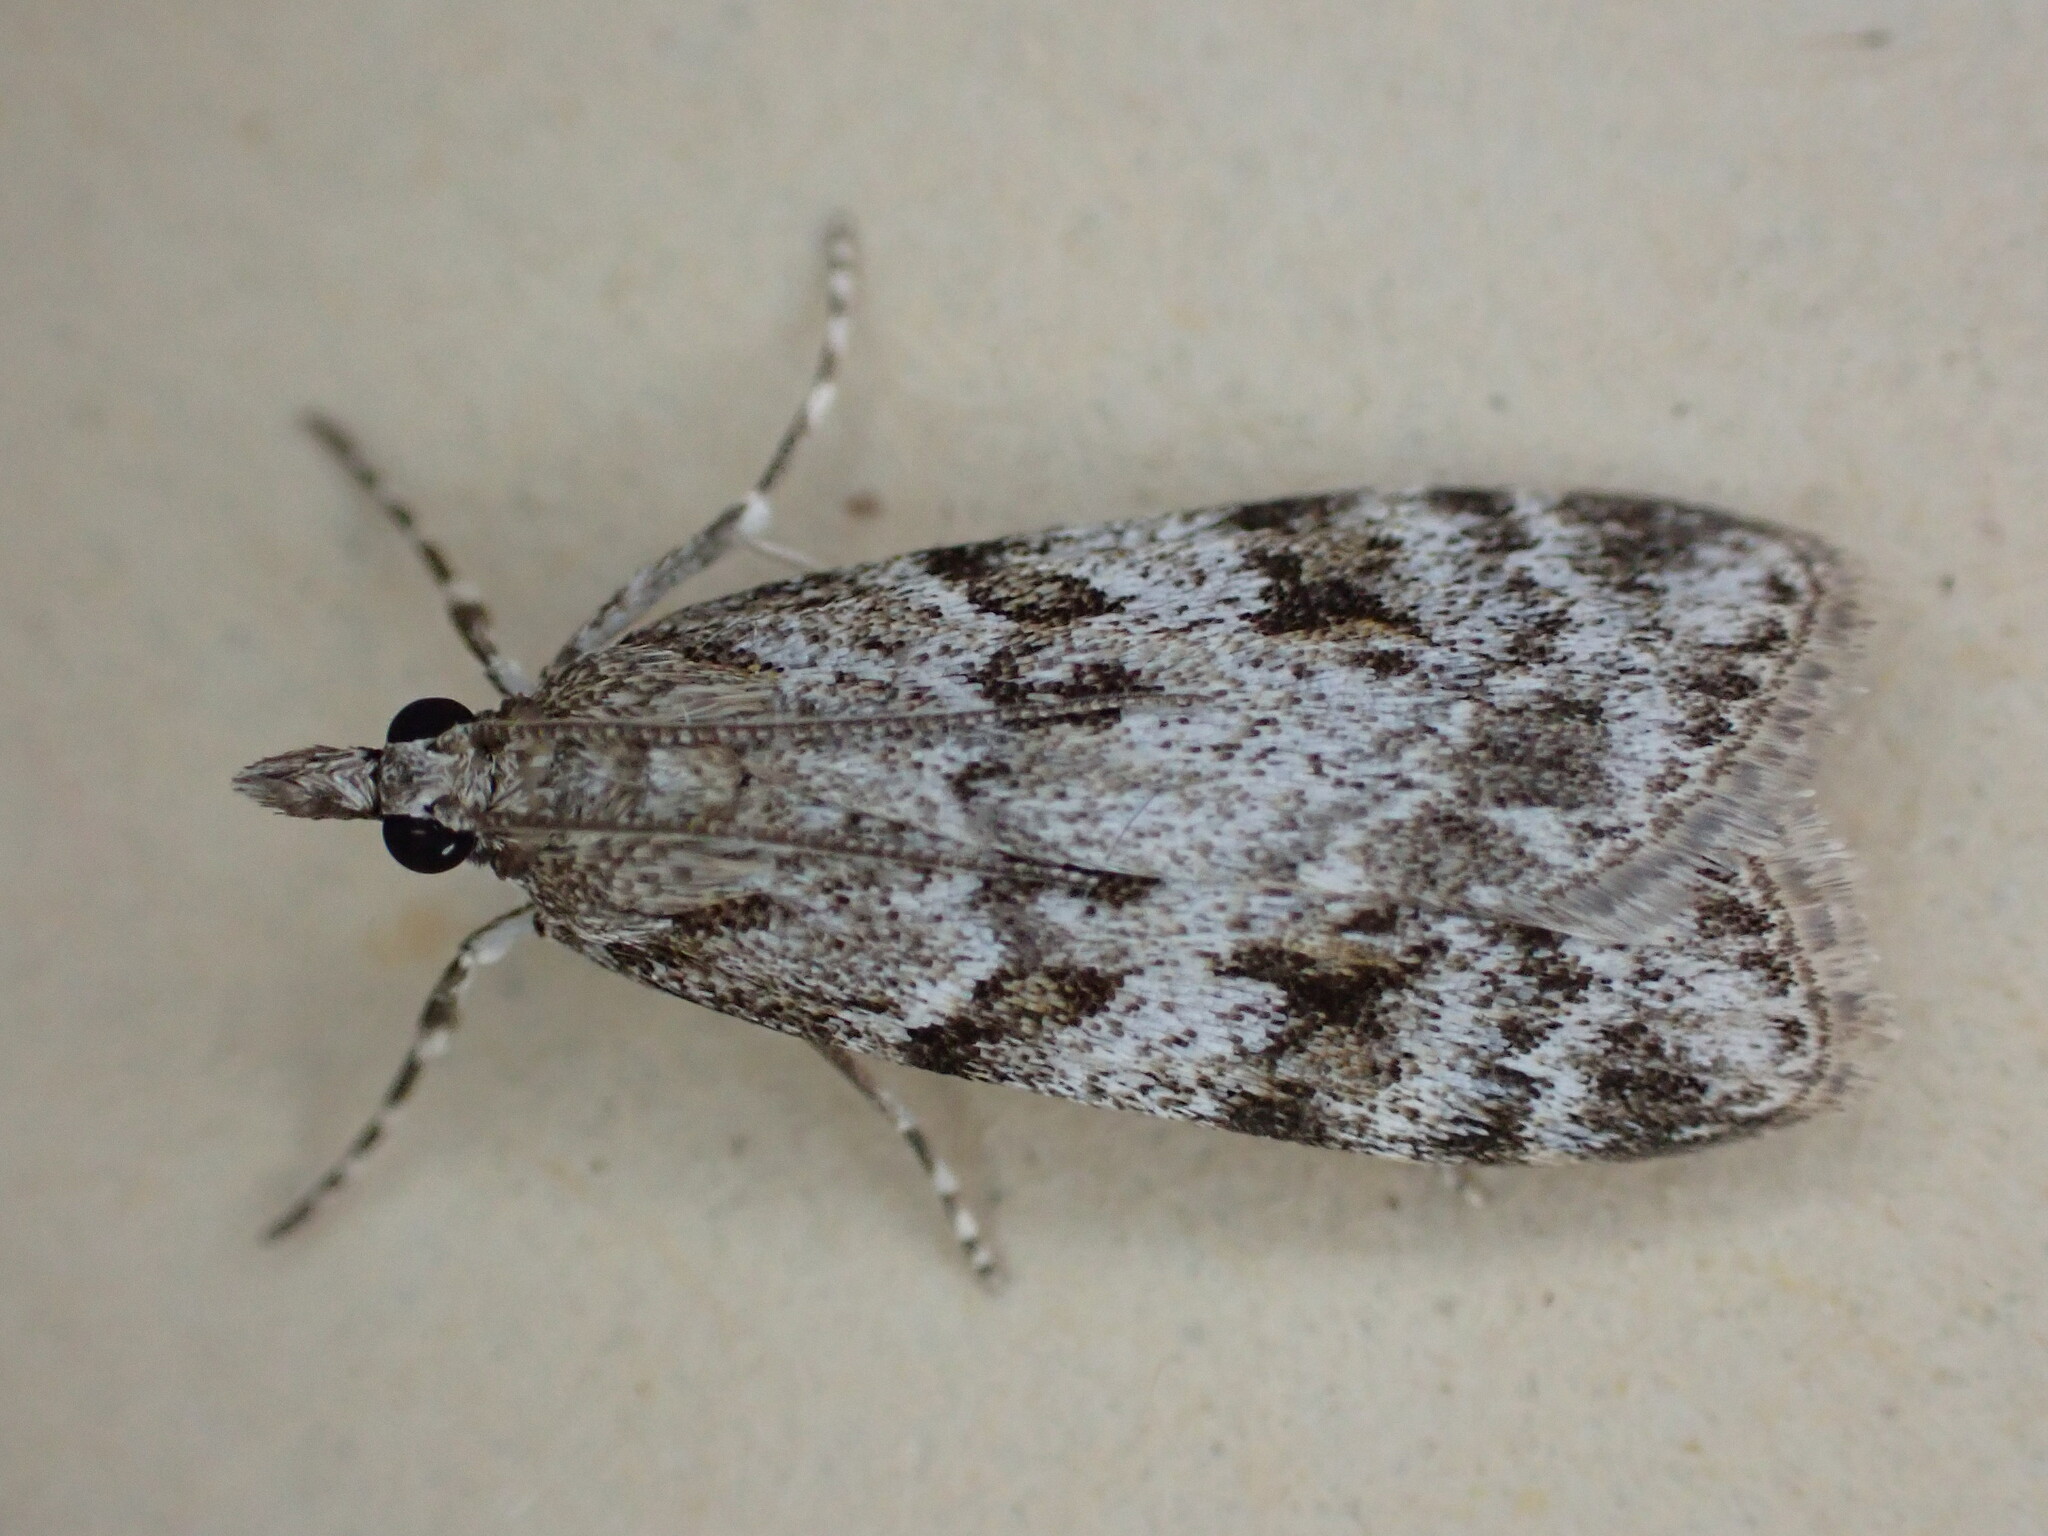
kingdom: Animalia
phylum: Arthropoda
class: Insecta
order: Lepidoptera
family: Crambidae
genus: Scoparia
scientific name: Scoparia ambigualis
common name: Common grey
